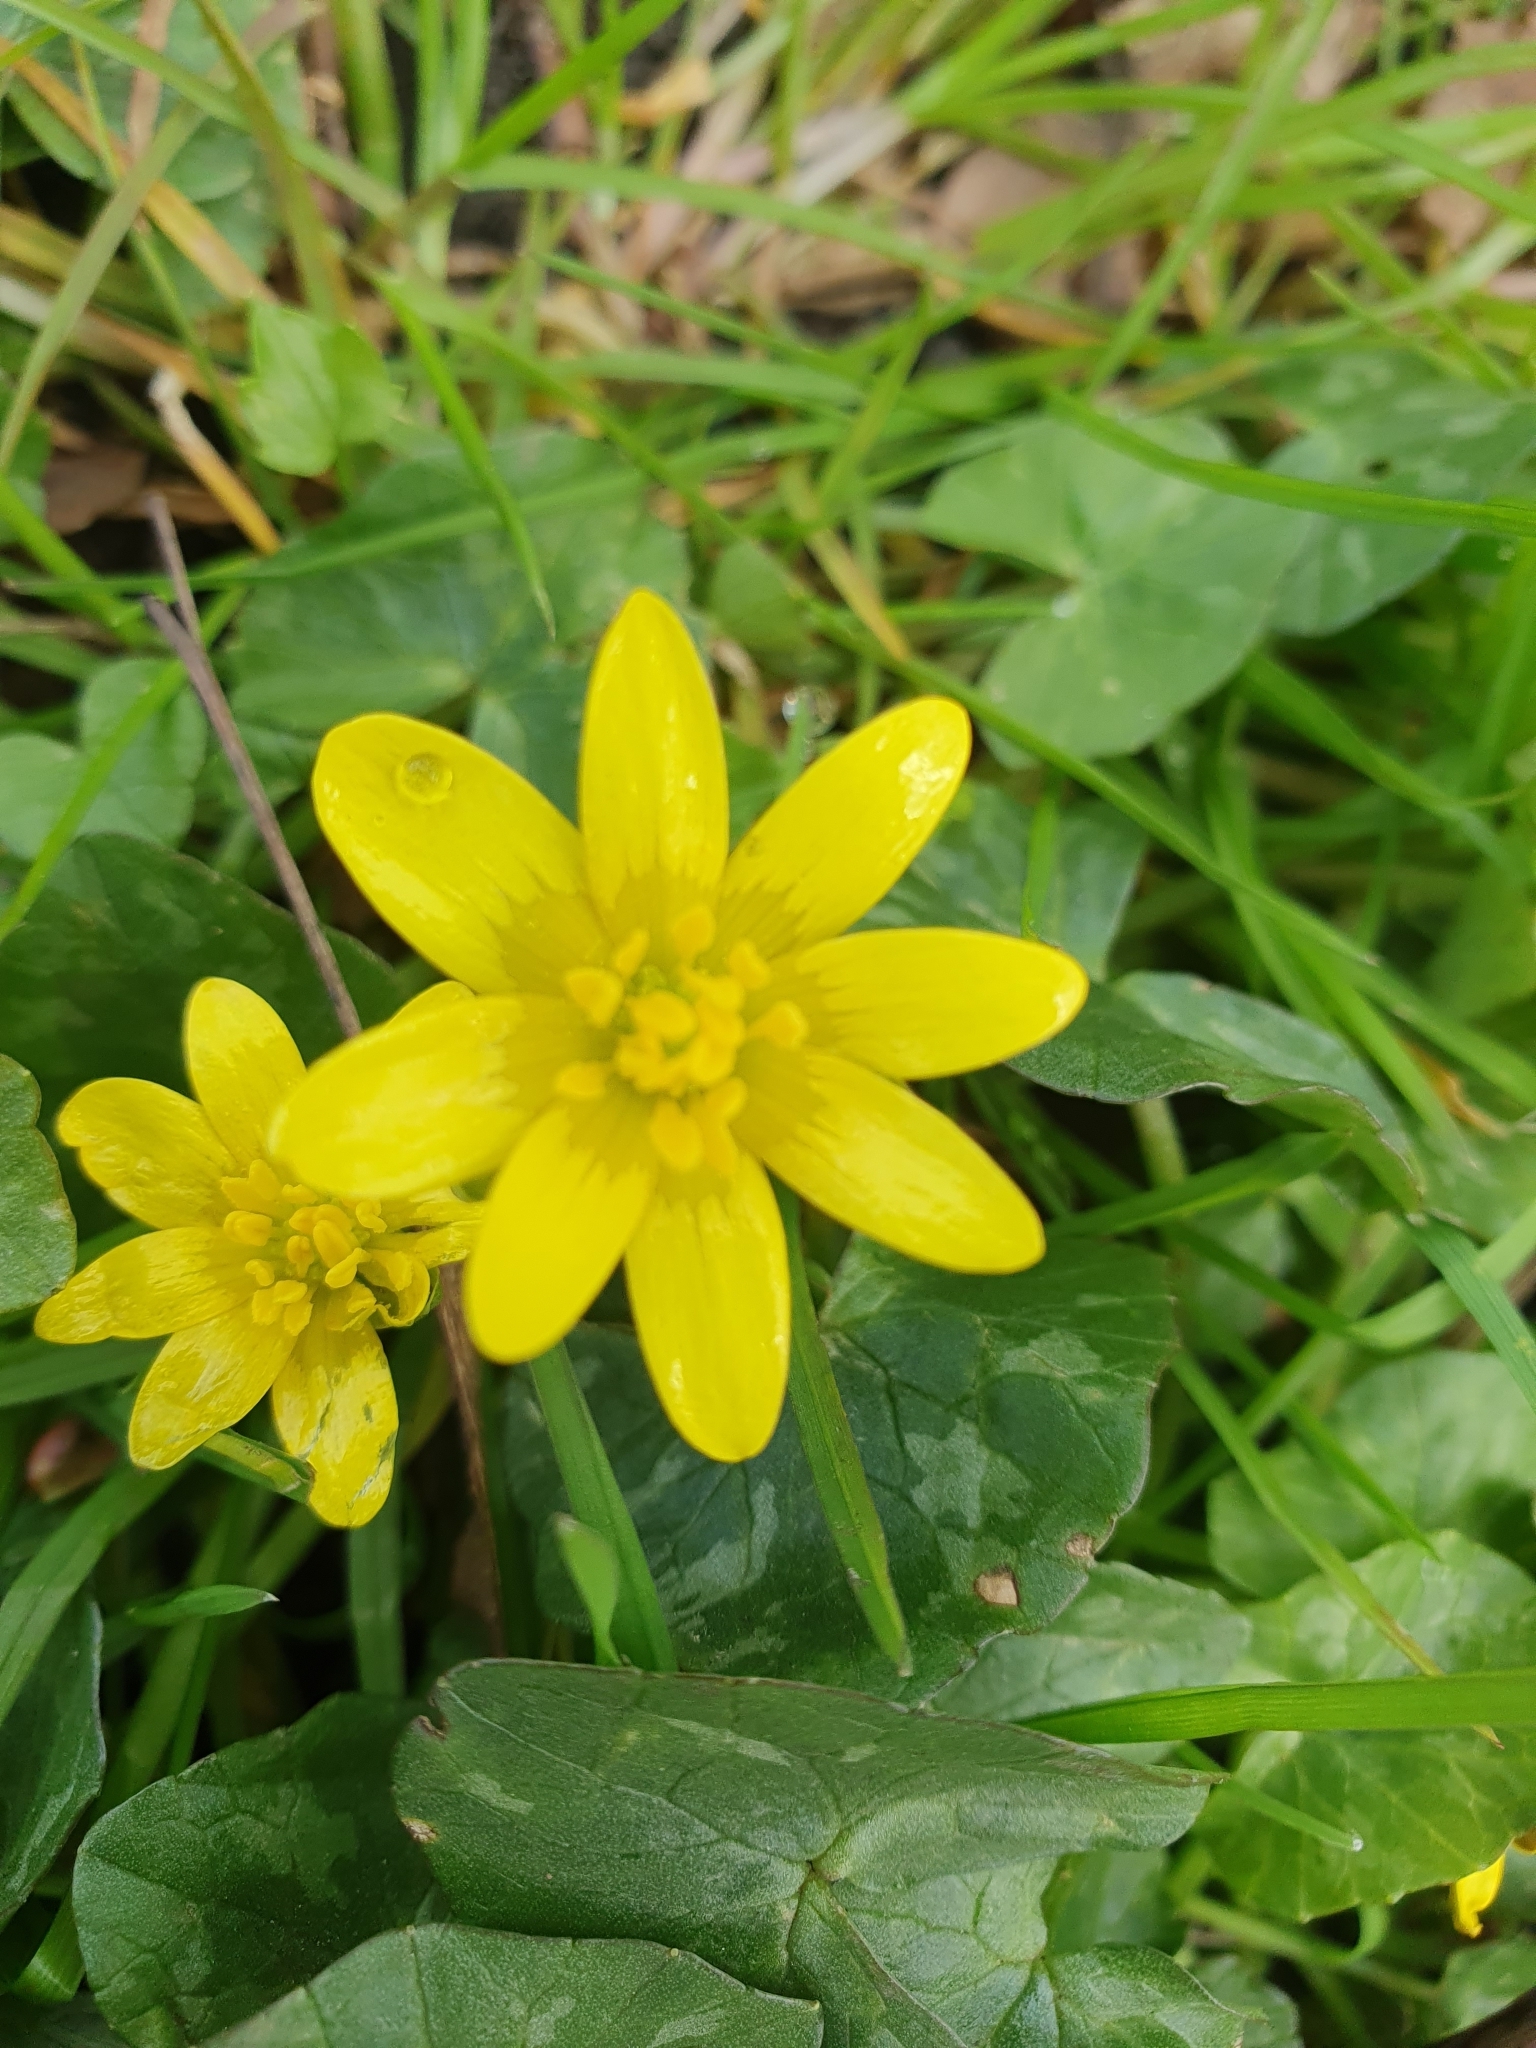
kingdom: Plantae
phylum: Tracheophyta
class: Magnoliopsida
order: Ranunculales
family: Ranunculaceae
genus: Ficaria
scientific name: Ficaria verna
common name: Lesser celandine
